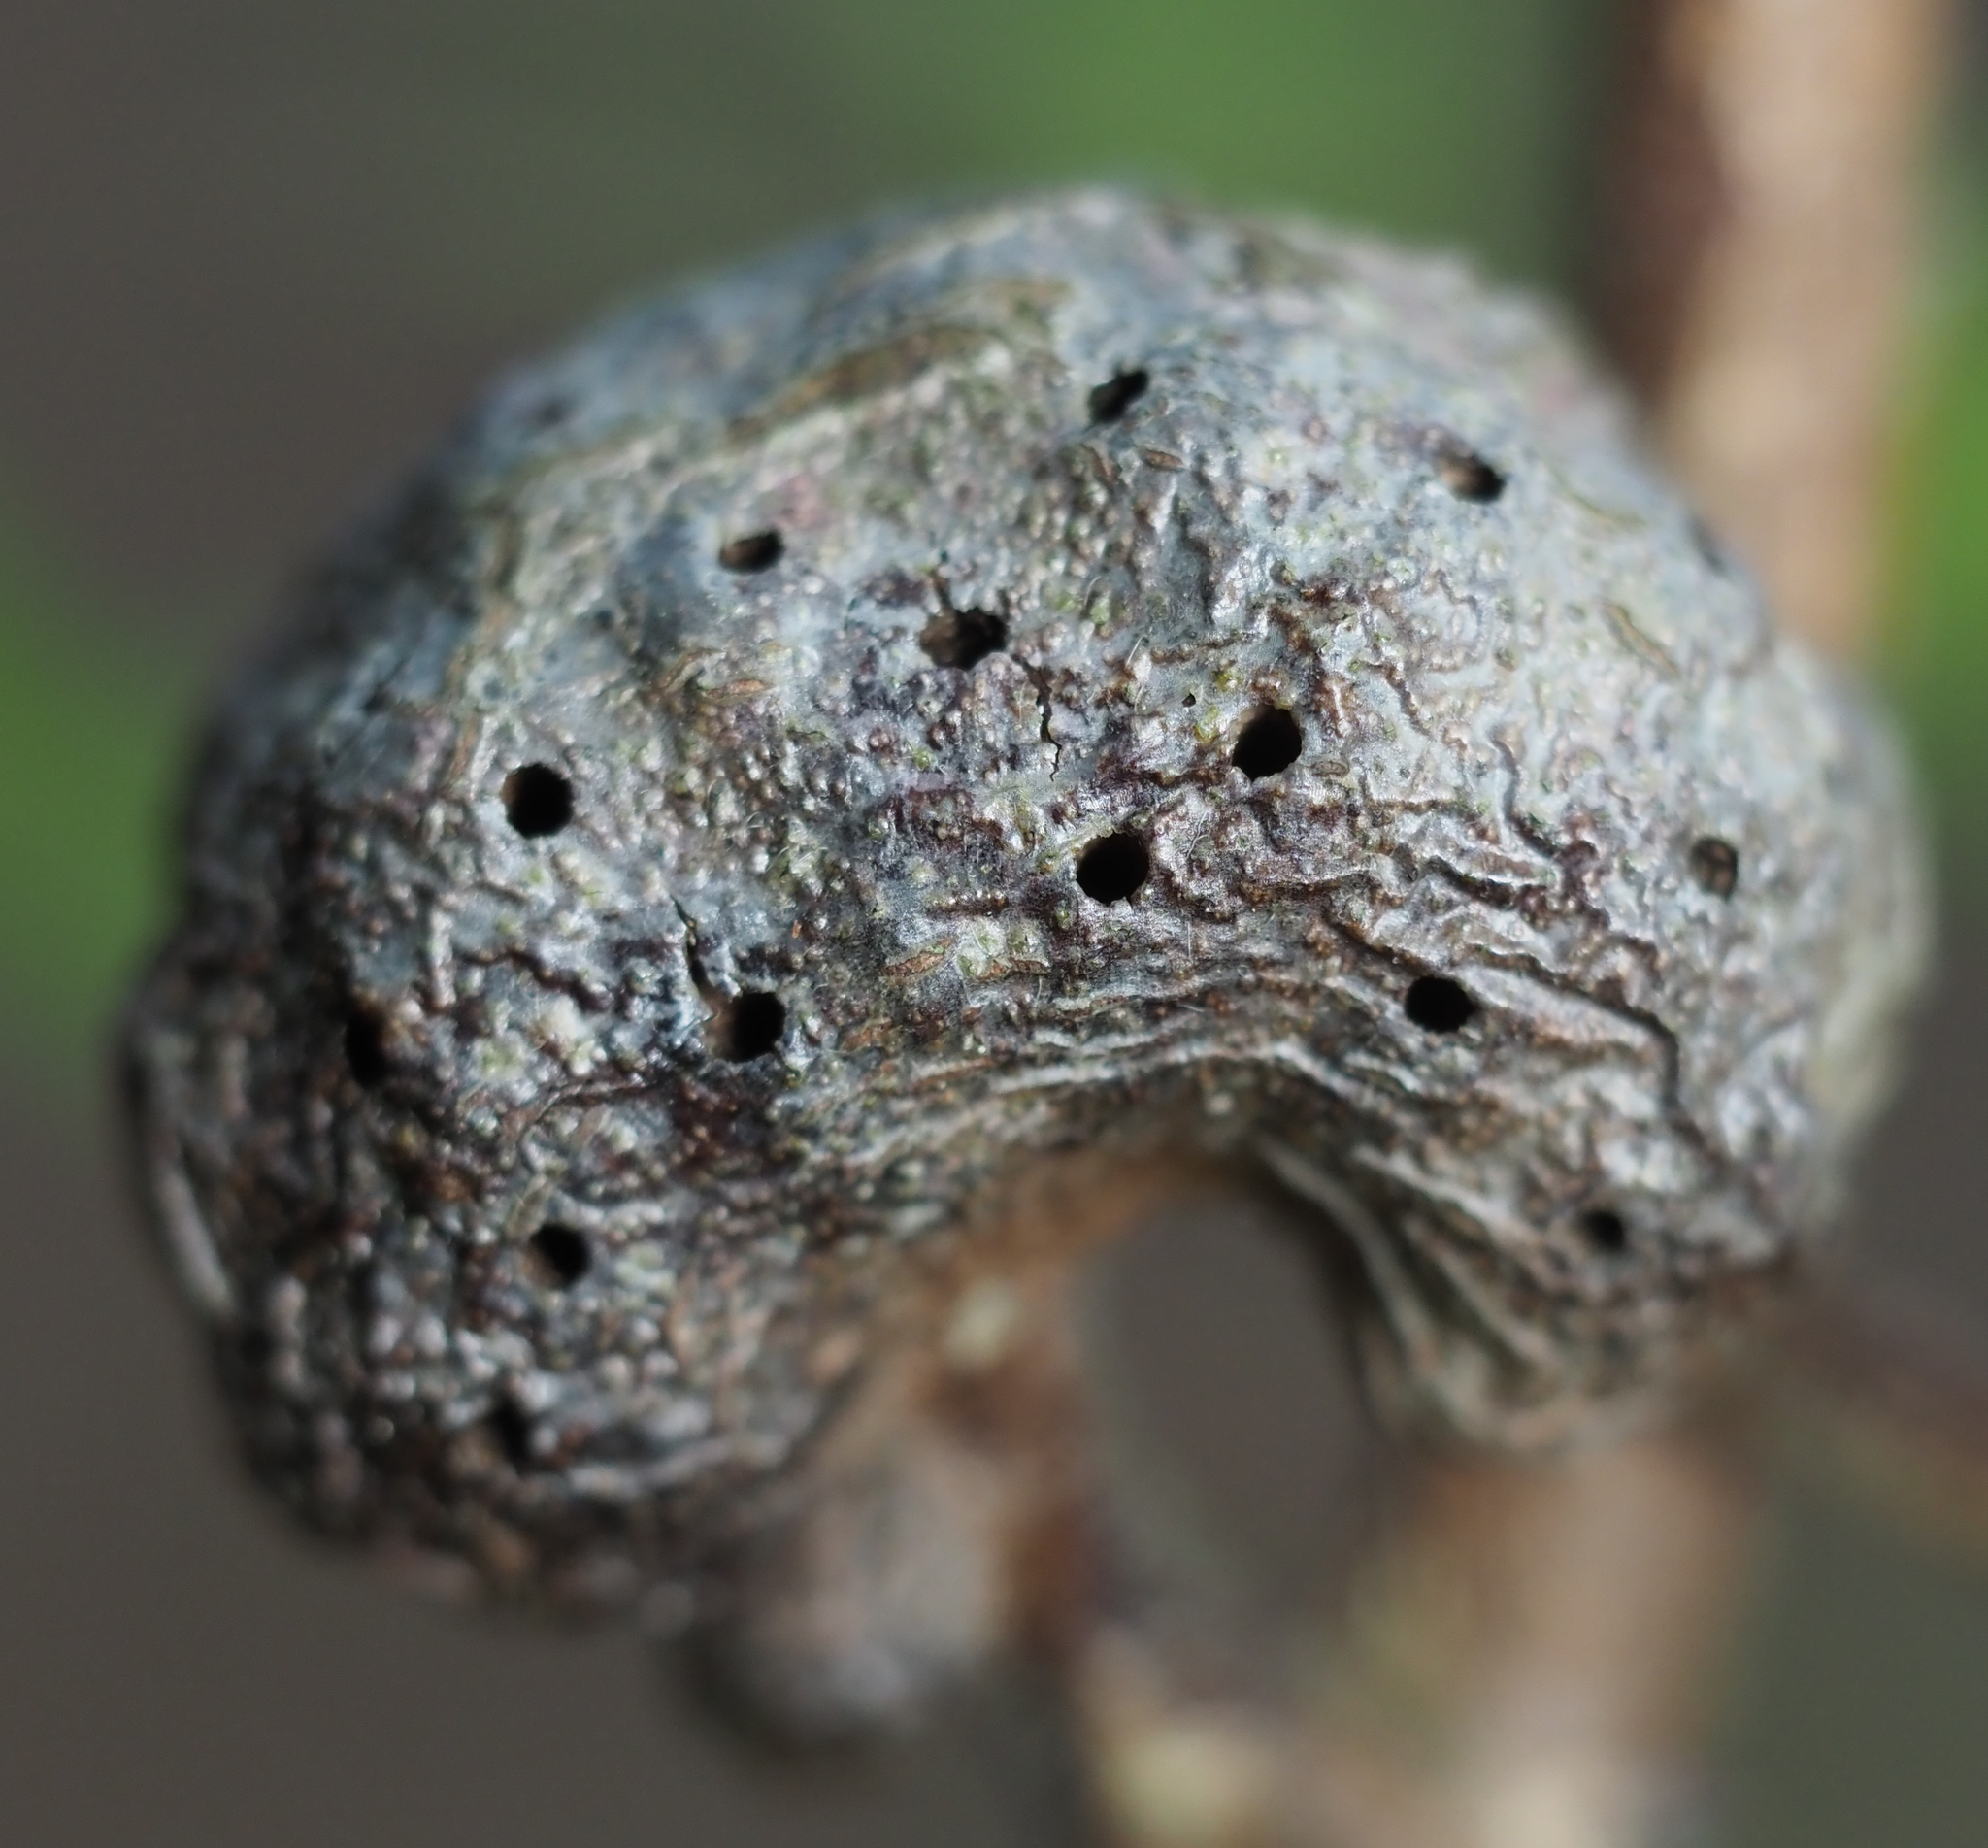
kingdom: Animalia
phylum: Arthropoda
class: Insecta
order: Hymenoptera
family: Pteromalidae
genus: Hemadas
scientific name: Hemadas nubilipennis
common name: Blueberry stem gall wasp
